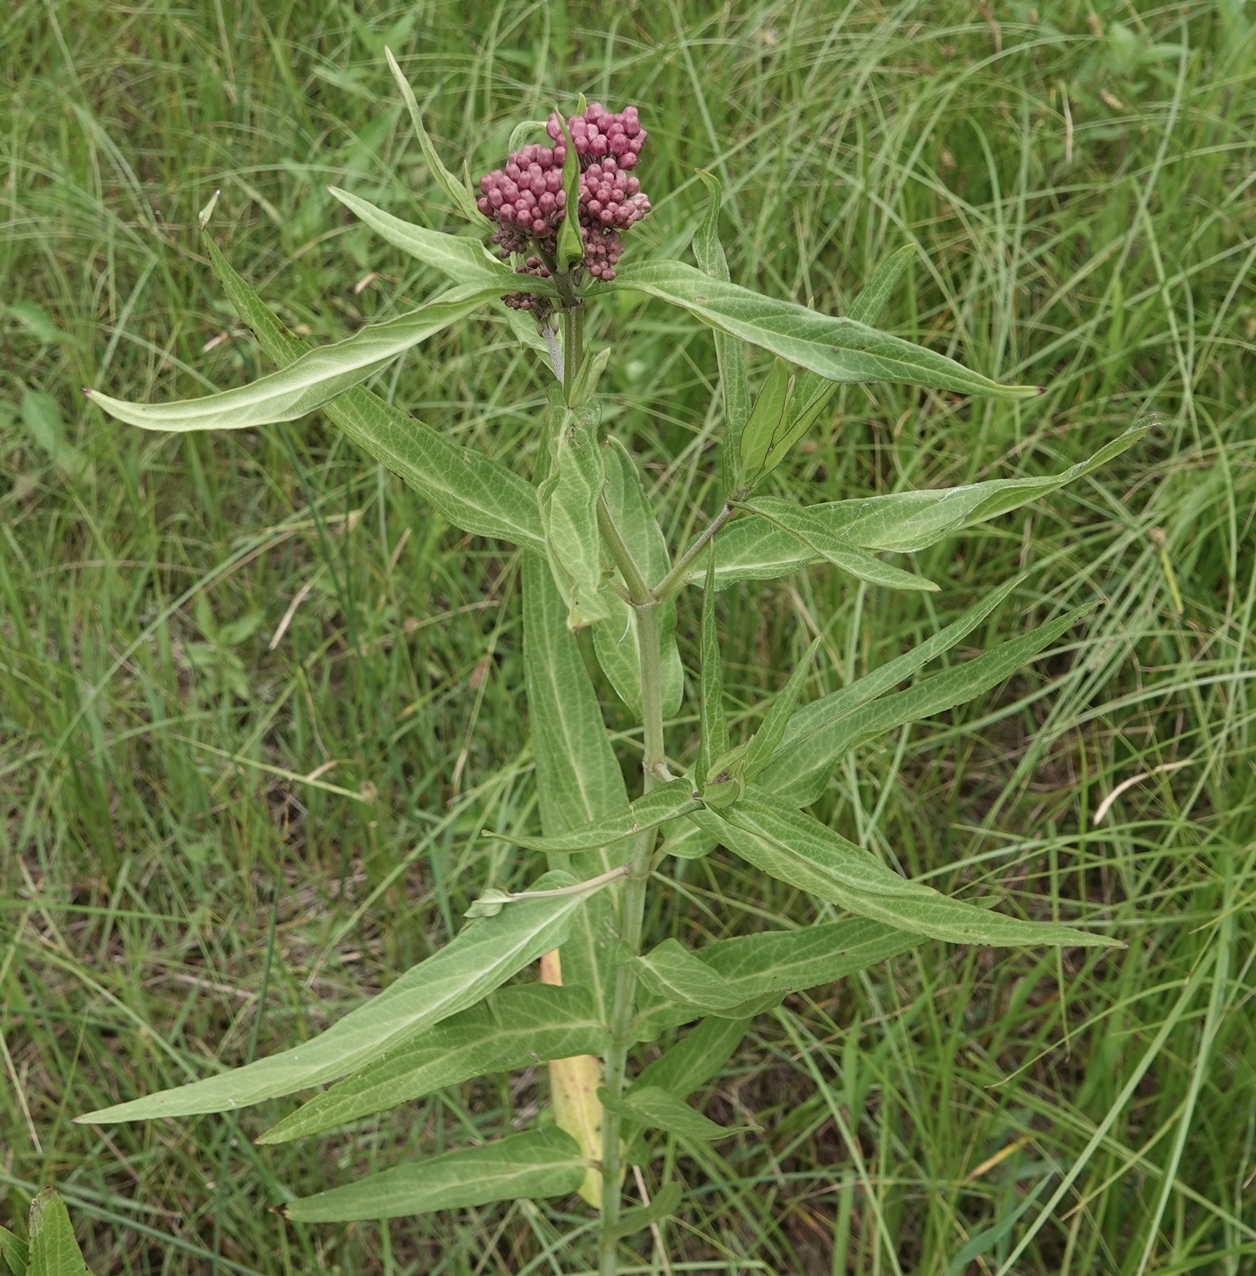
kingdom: Plantae
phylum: Tracheophyta
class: Magnoliopsida
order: Gentianales
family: Apocynaceae
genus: Asclepias
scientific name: Asclepias incarnata
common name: Swamp milkweed
